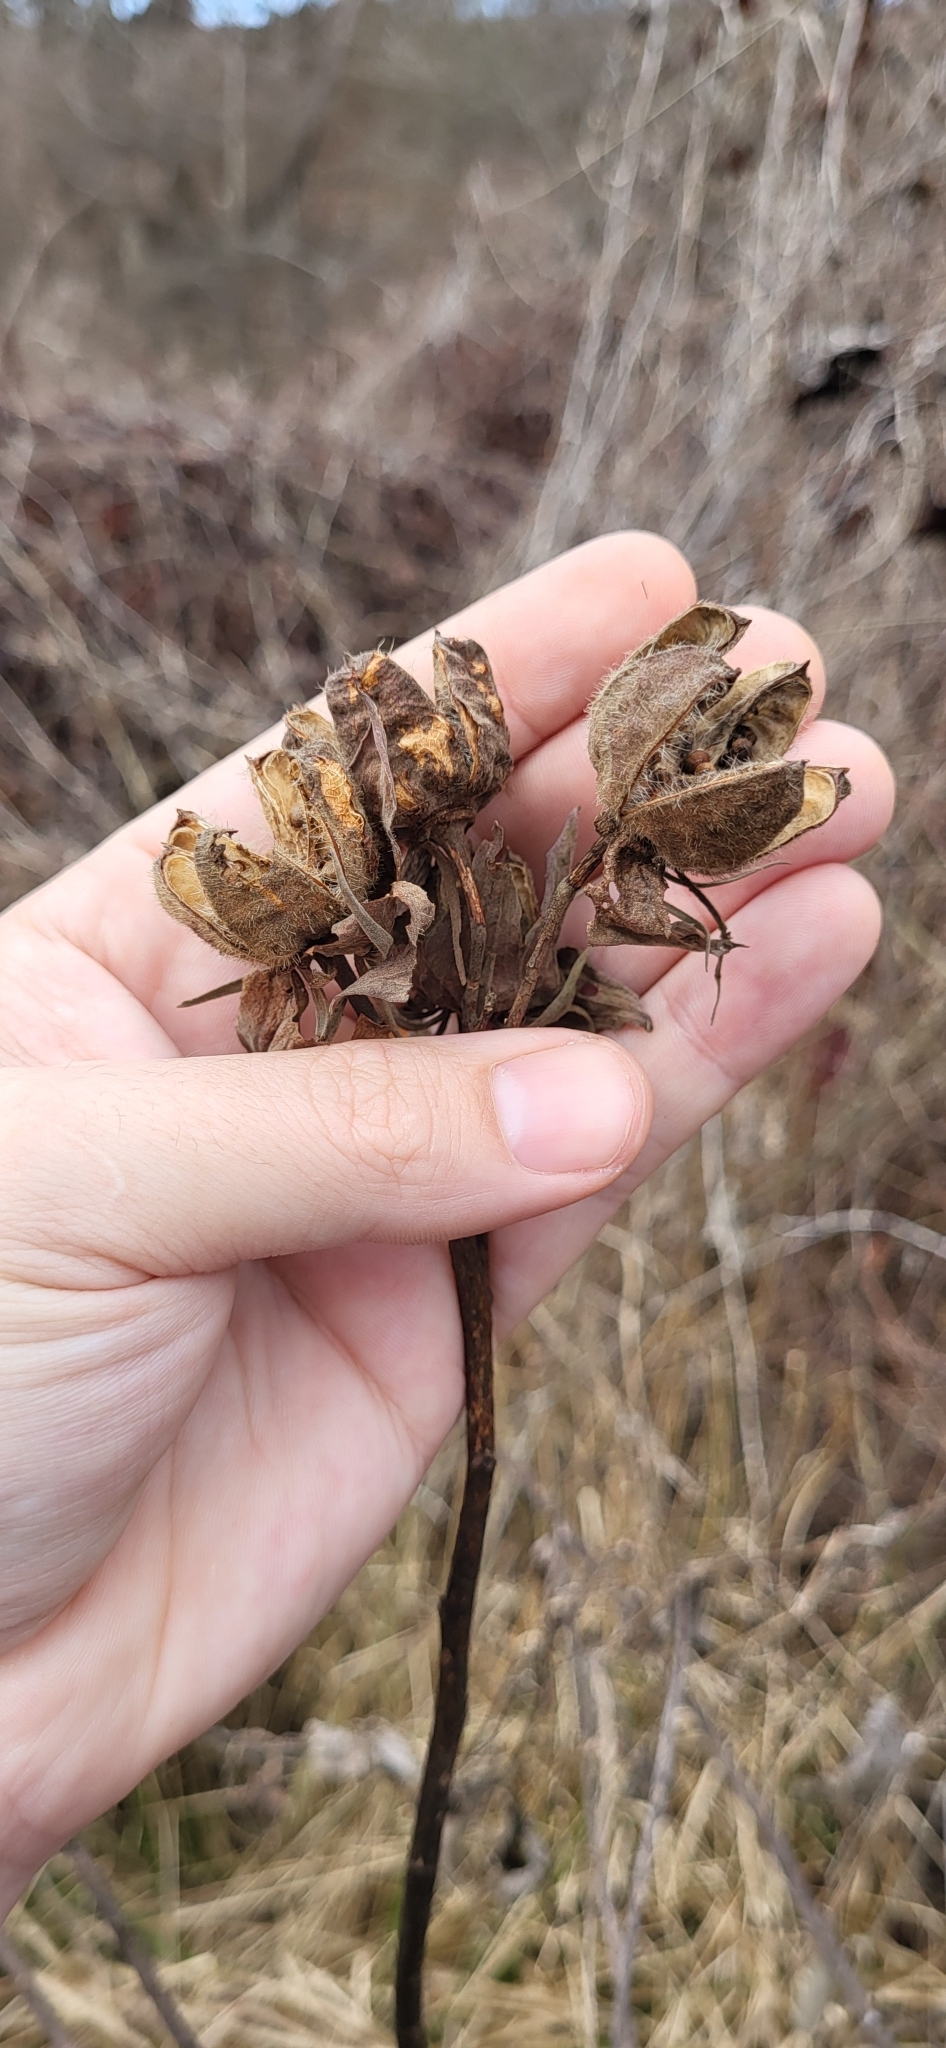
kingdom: Plantae
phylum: Tracheophyta
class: Magnoliopsida
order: Malvales
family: Malvaceae
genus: Hibiscus
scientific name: Hibiscus moscheutos
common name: Common rose-mallow
